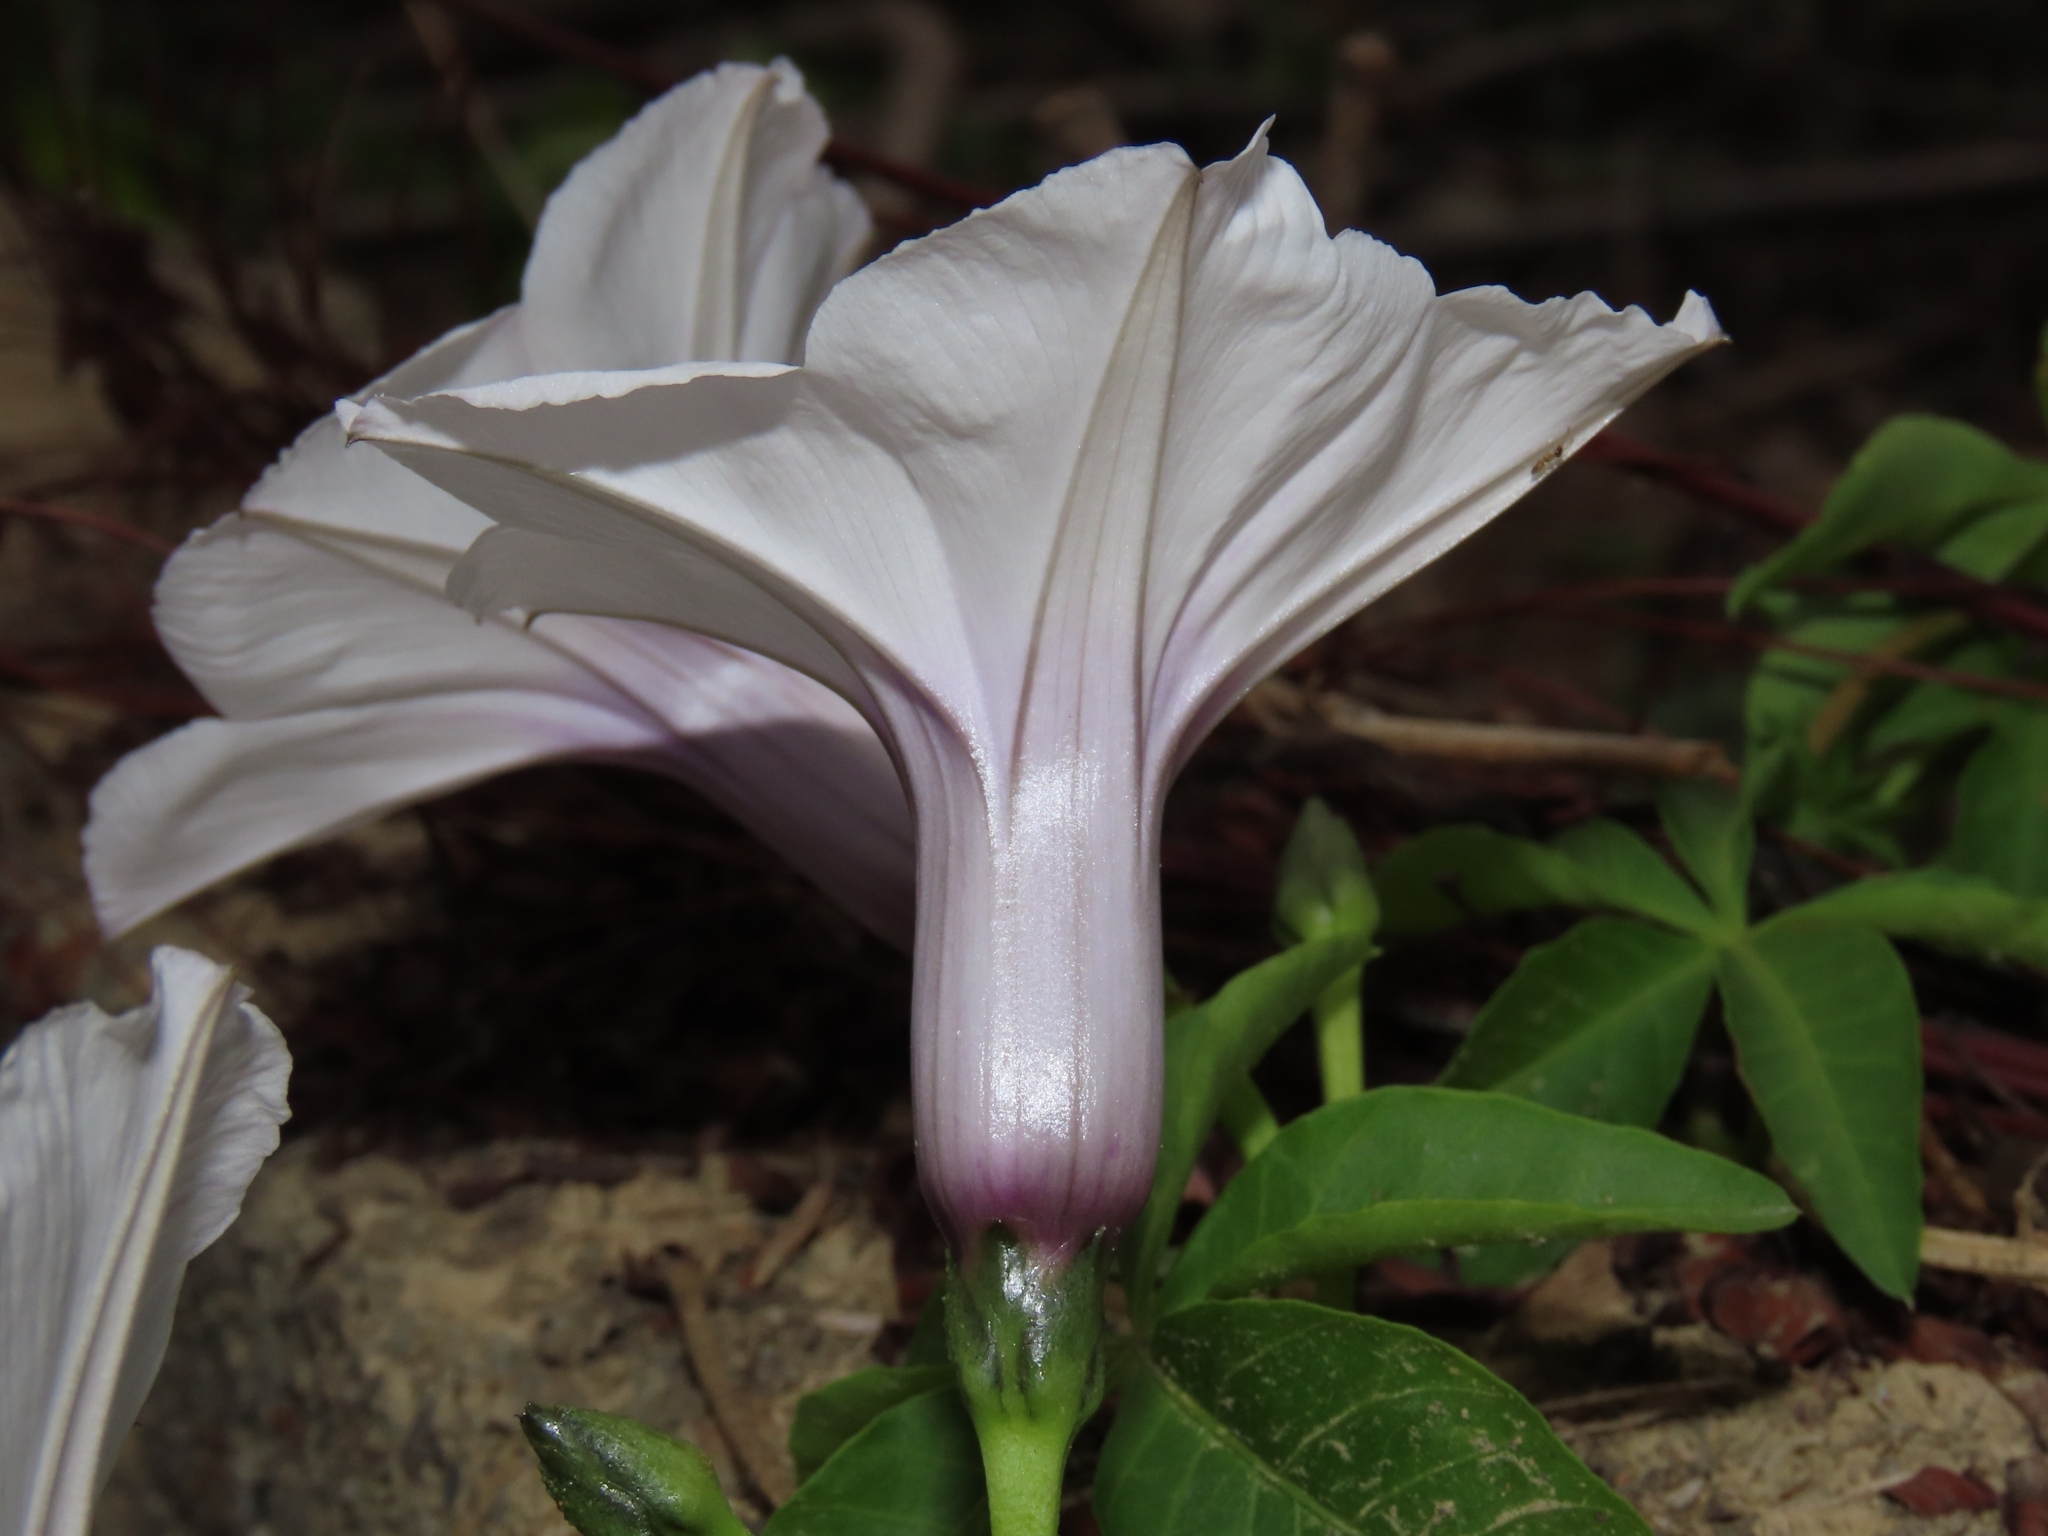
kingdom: Plantae
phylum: Tracheophyta
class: Magnoliopsida
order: Solanales
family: Convolvulaceae
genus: Ipomoea
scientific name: Ipomoea cairica
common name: Mile a minute vine
